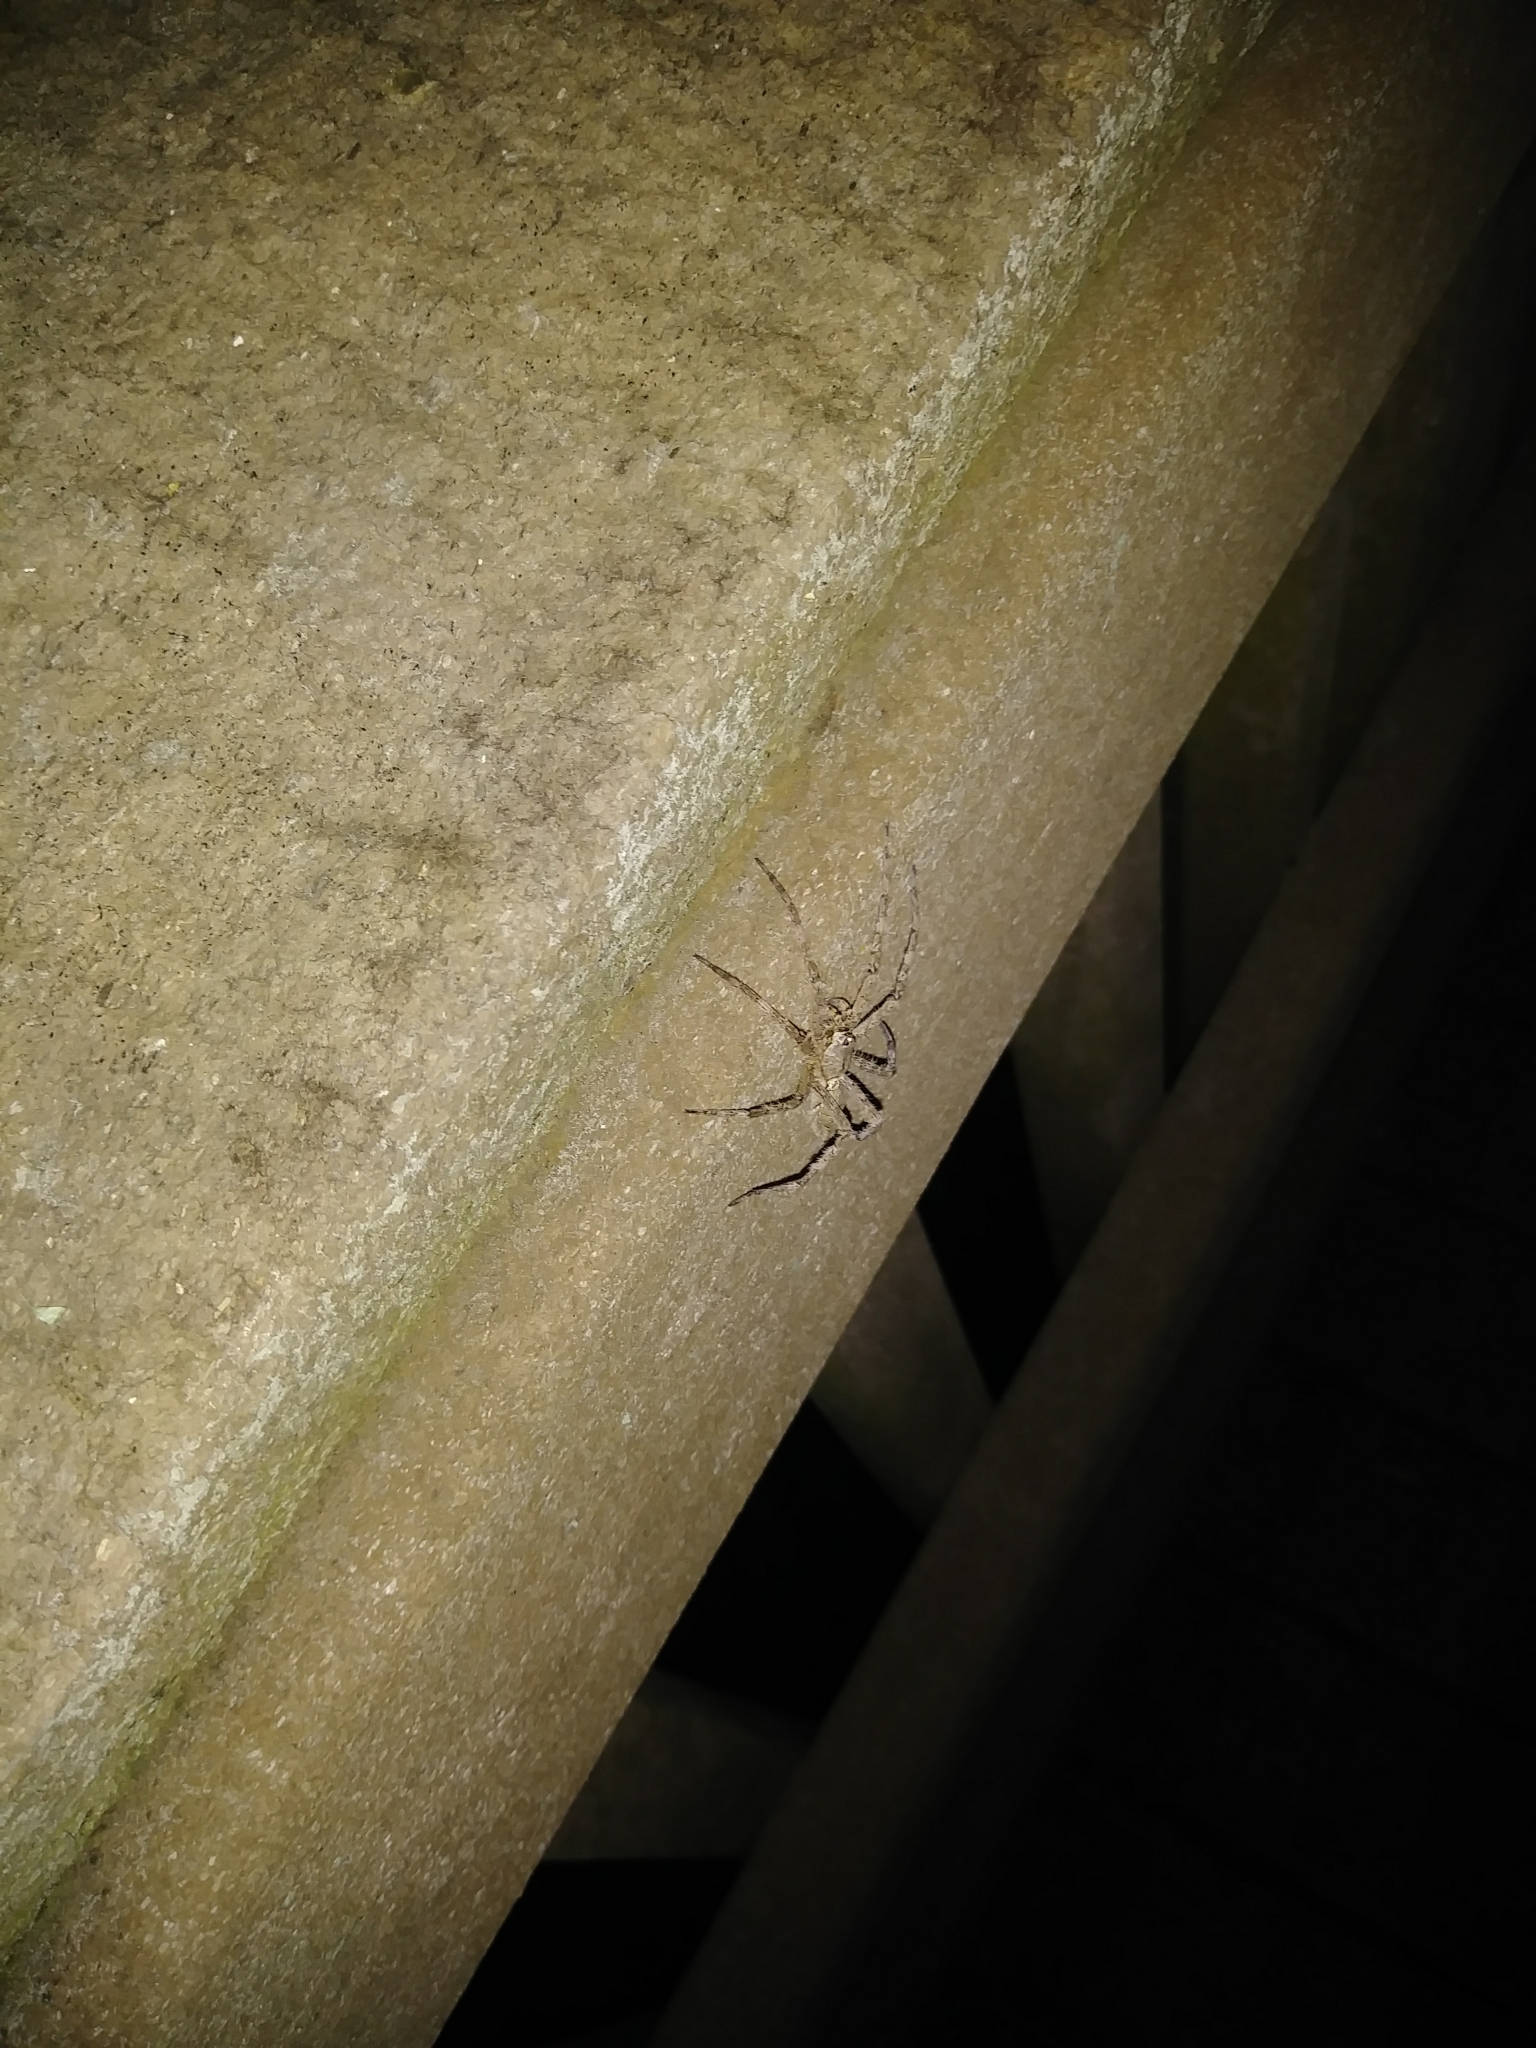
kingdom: Animalia
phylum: Arthropoda
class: Arachnida
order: Araneae
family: Pisauridae
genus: Dolomedes
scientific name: Dolomedes albineus
